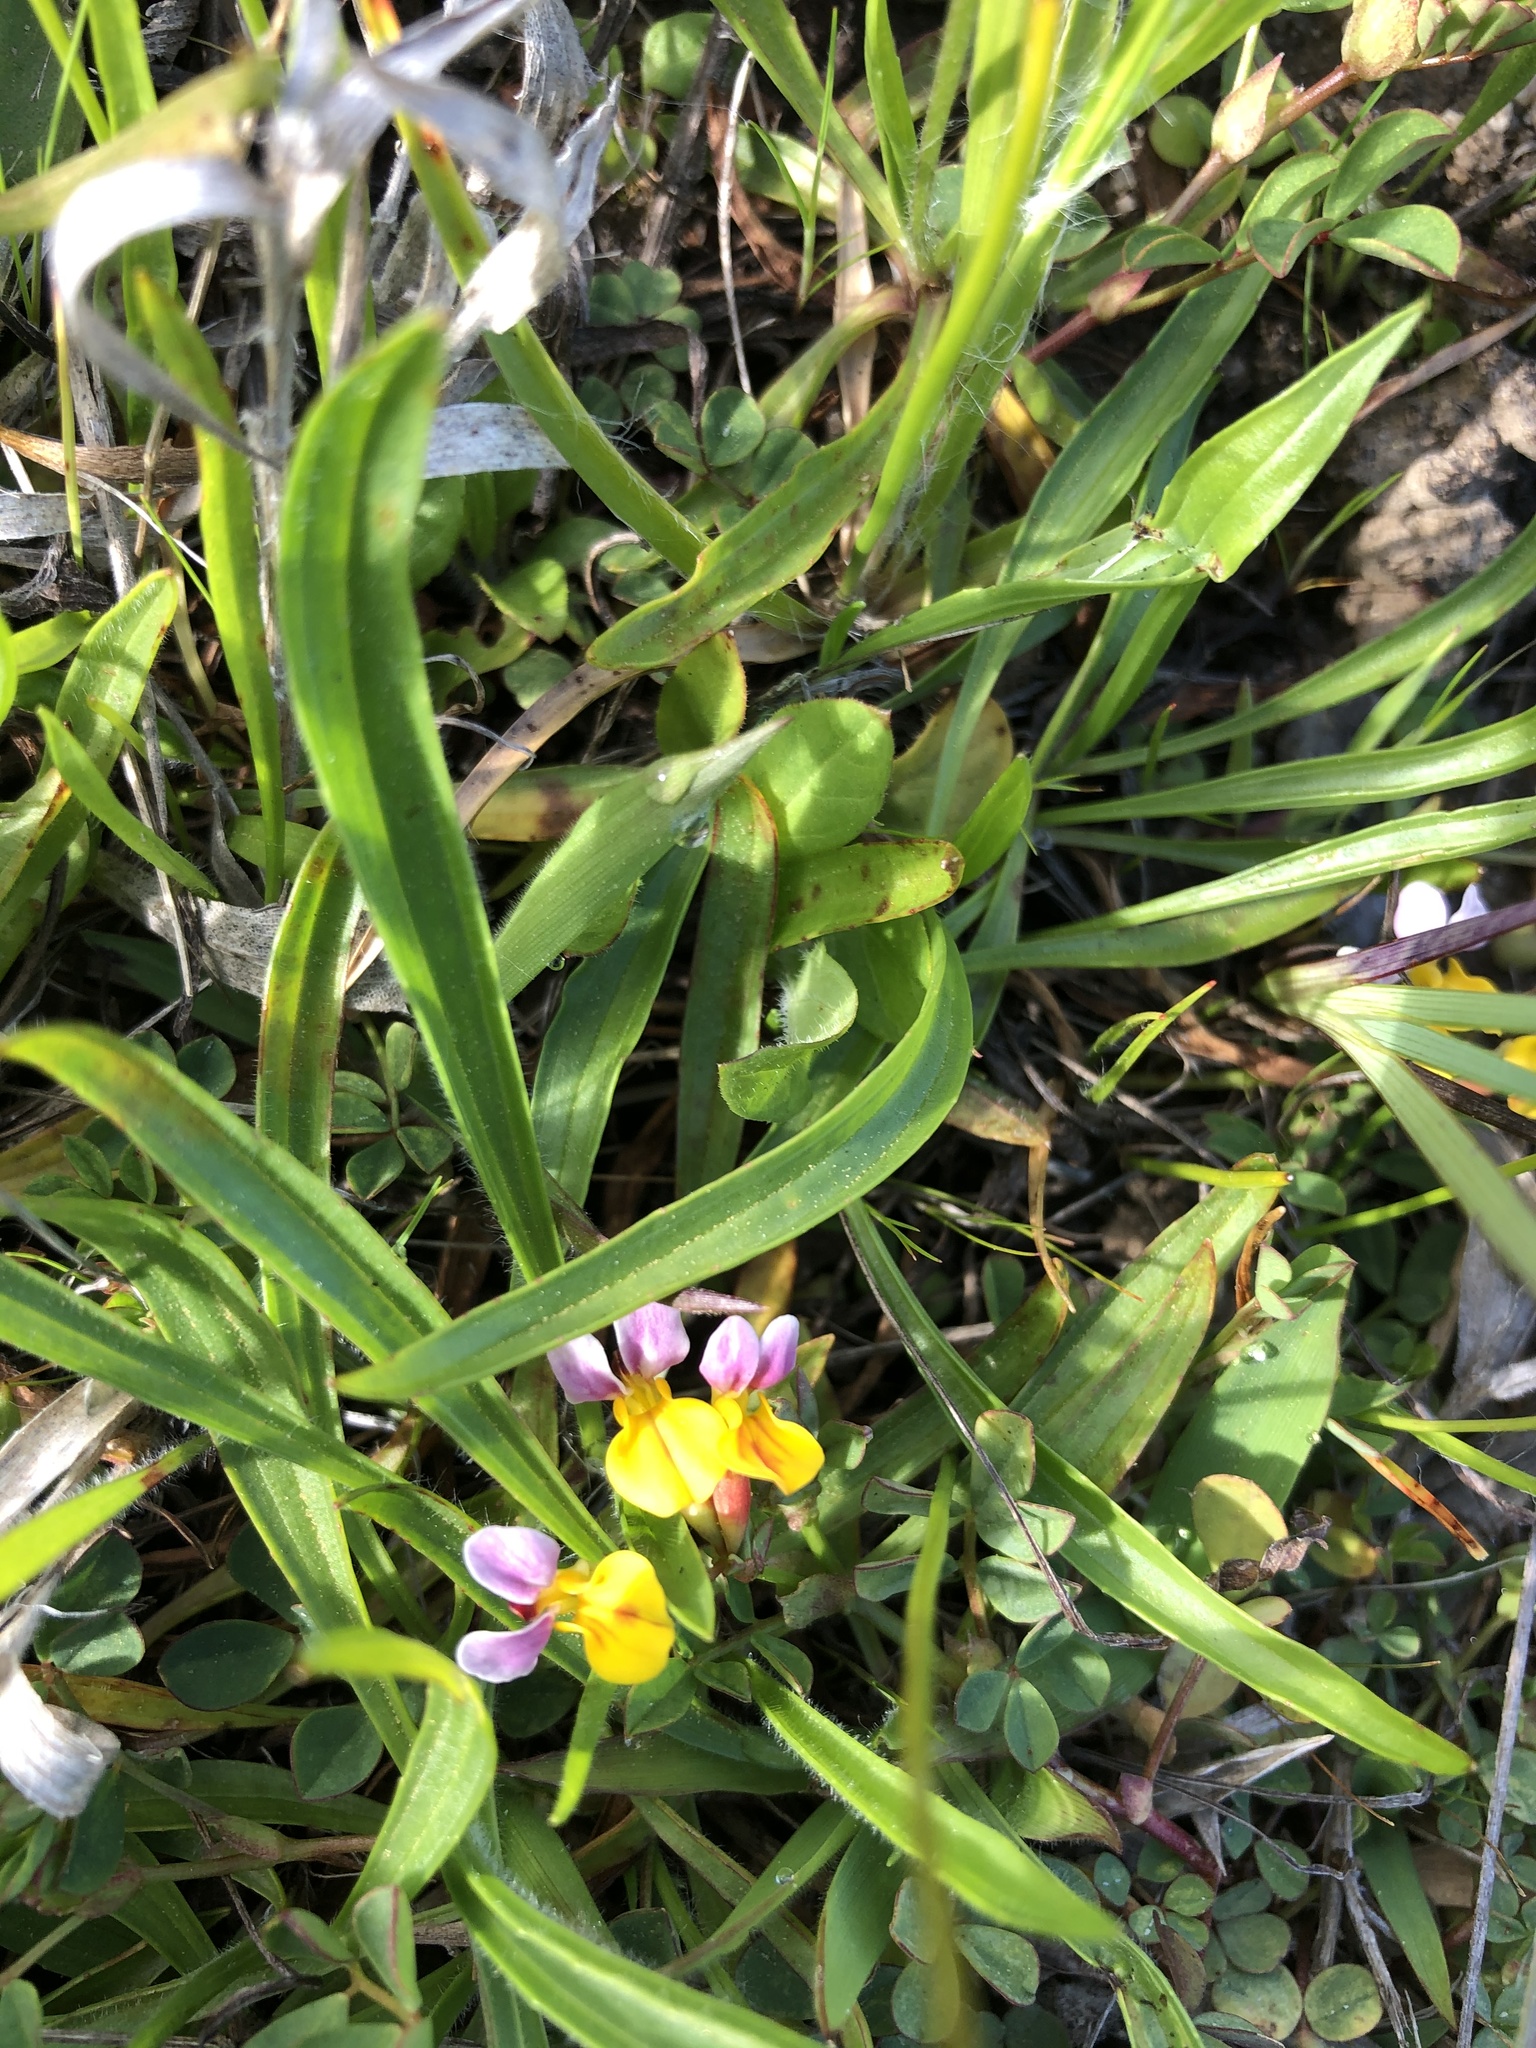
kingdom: Plantae
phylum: Tracheophyta
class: Magnoliopsida
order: Fabales
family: Fabaceae
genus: Hosackia
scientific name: Hosackia gracilis
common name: Seaside bird's-foot lotus
